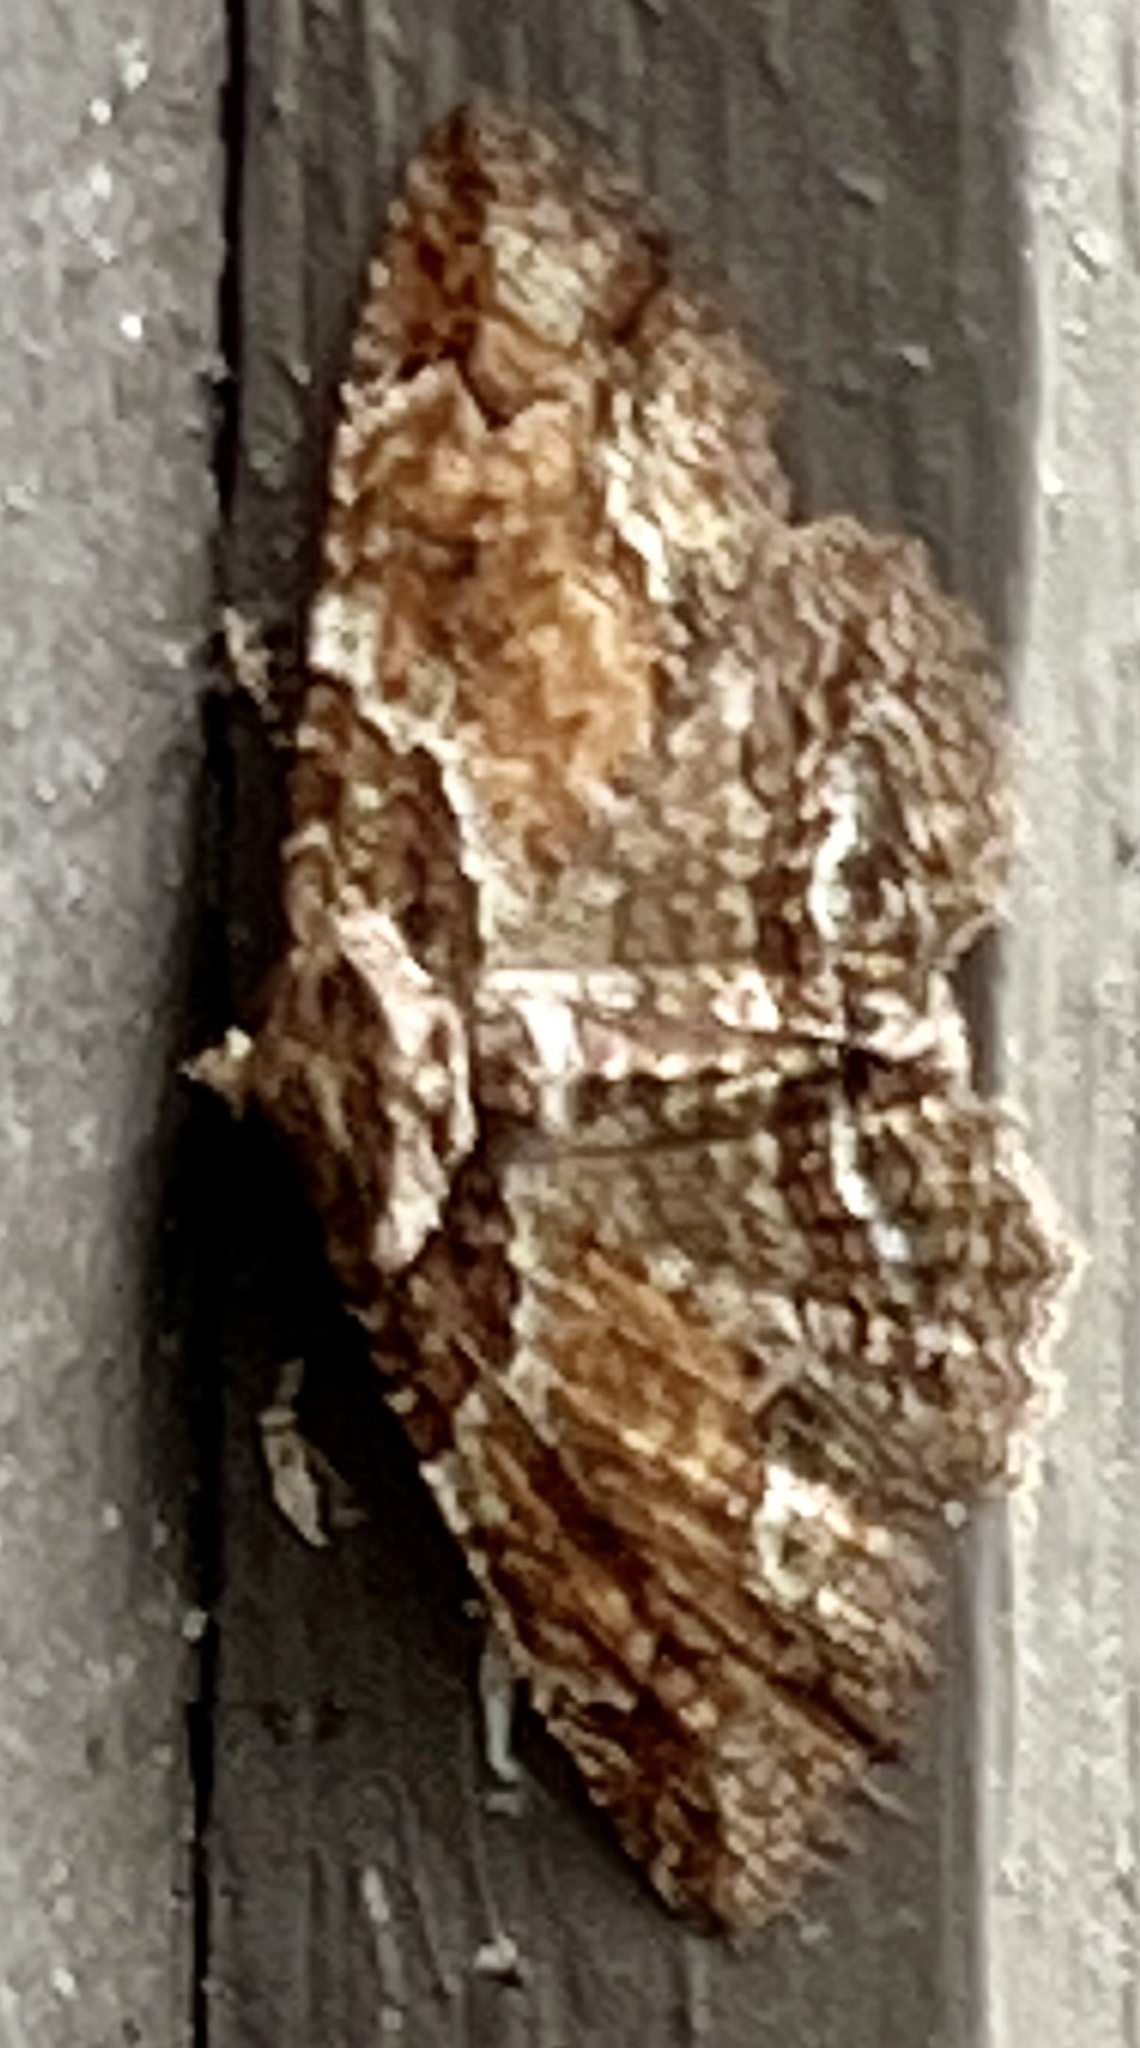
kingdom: Animalia
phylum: Arthropoda
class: Insecta
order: Lepidoptera
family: Erebidae
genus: Zale
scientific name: Zale minerea
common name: Colorful zale moth
